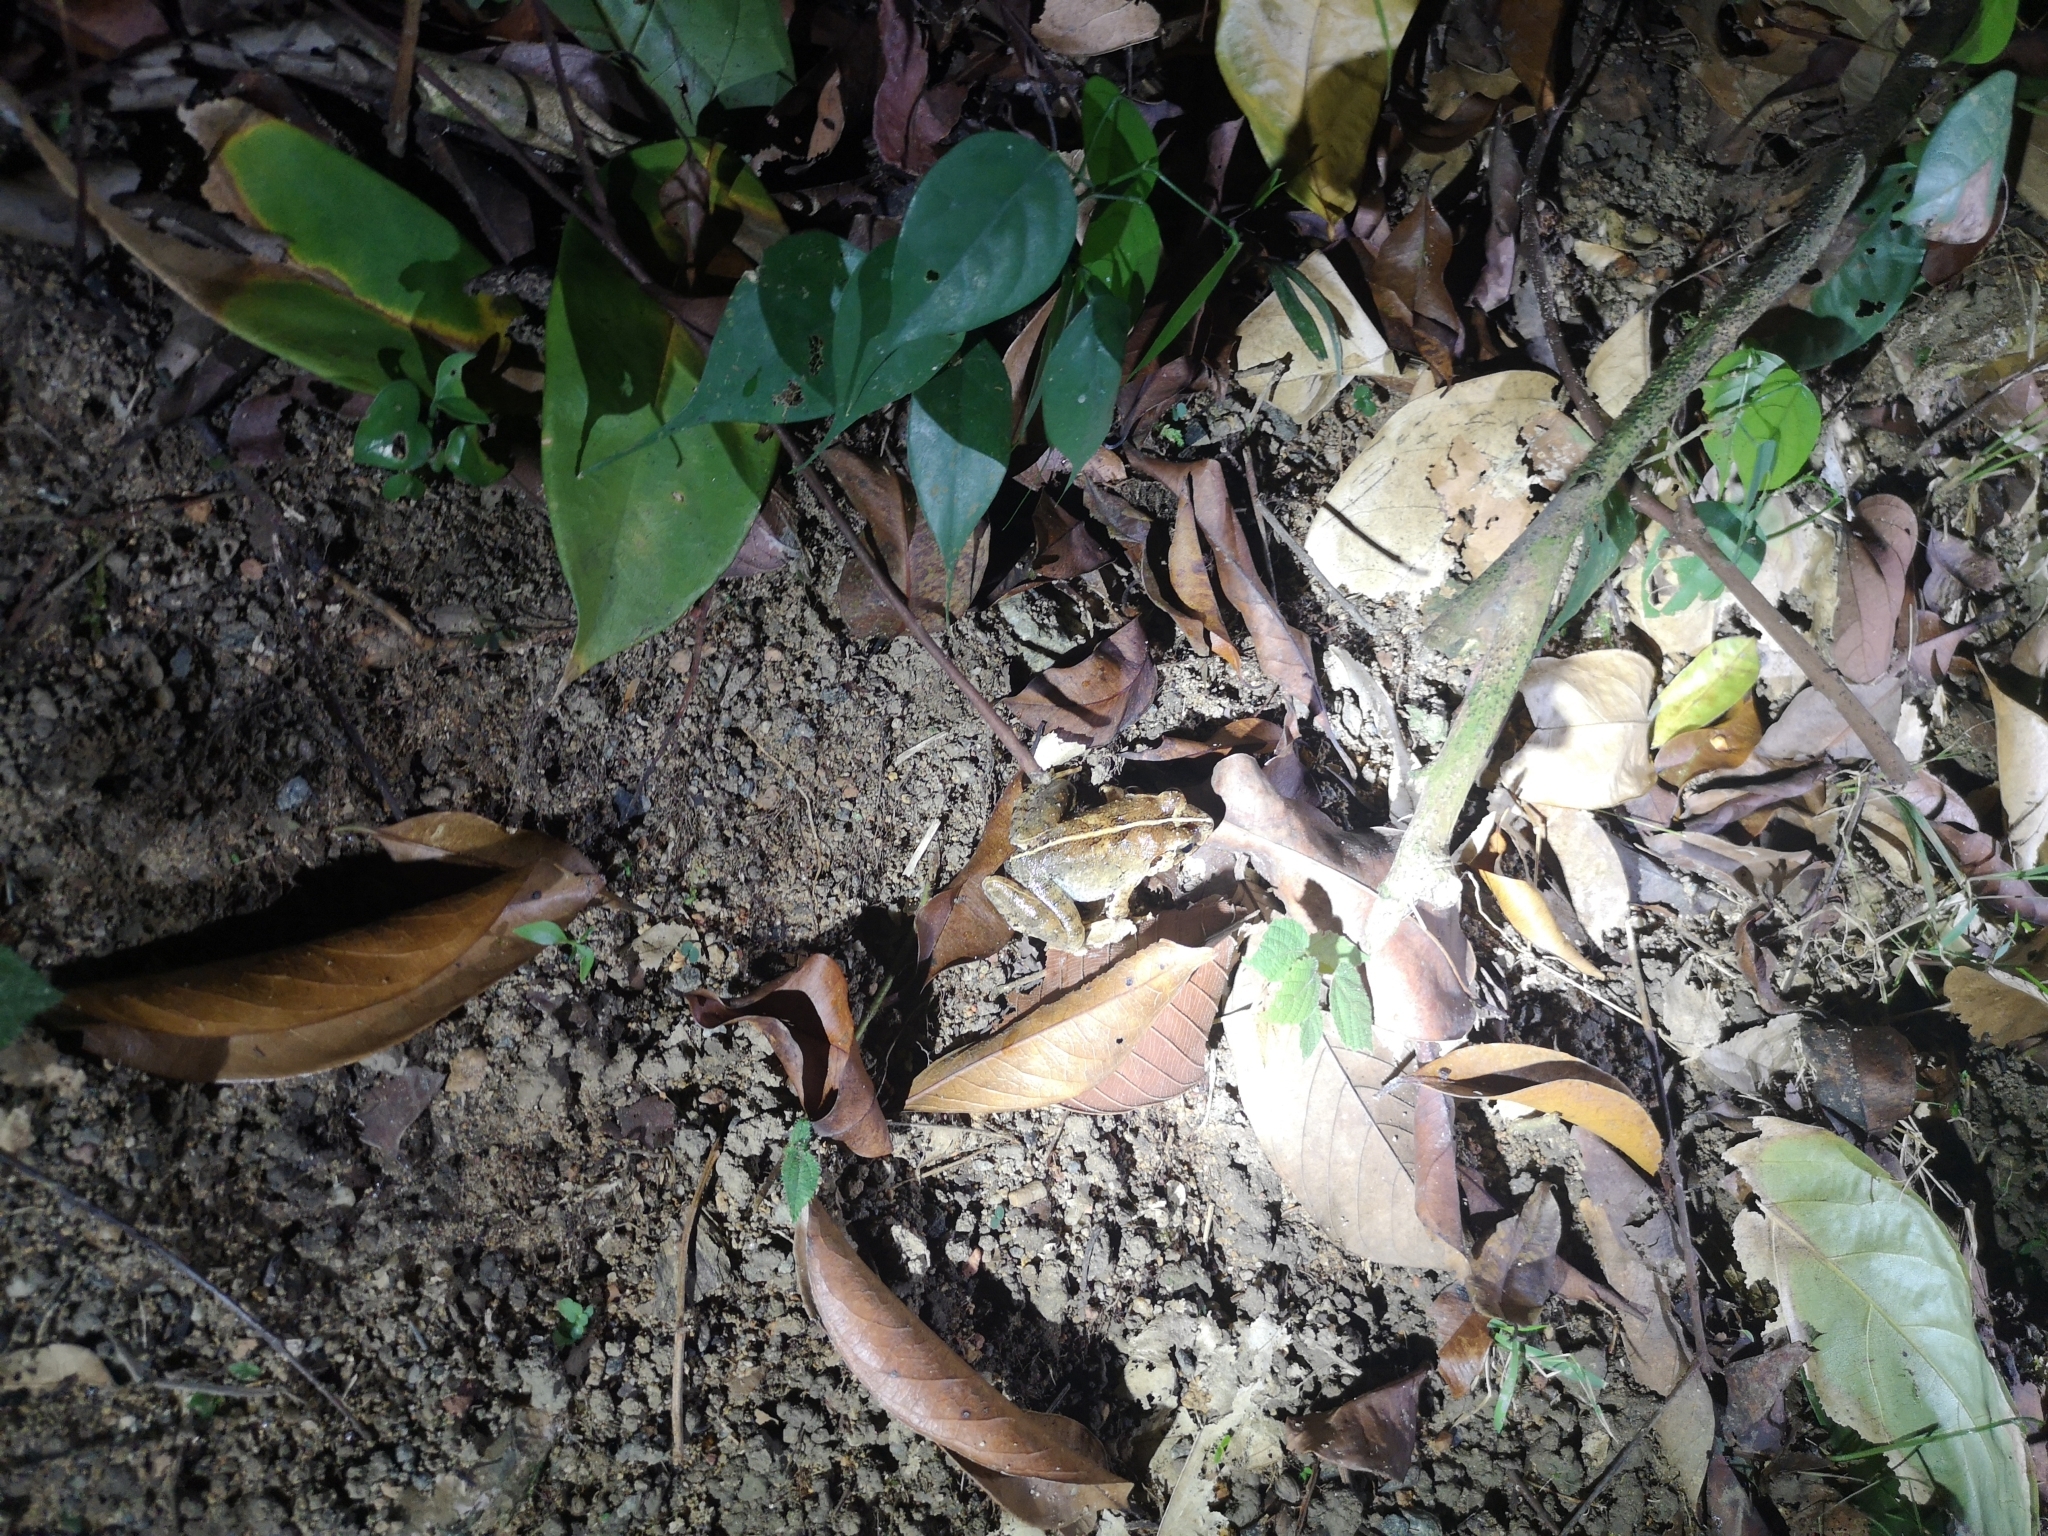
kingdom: Animalia
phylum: Chordata
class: Amphibia
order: Anura
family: Dicroglossidae
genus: Limnonectes
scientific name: Limnonectes malesianus
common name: Peat swamp frog/malaysian frog
